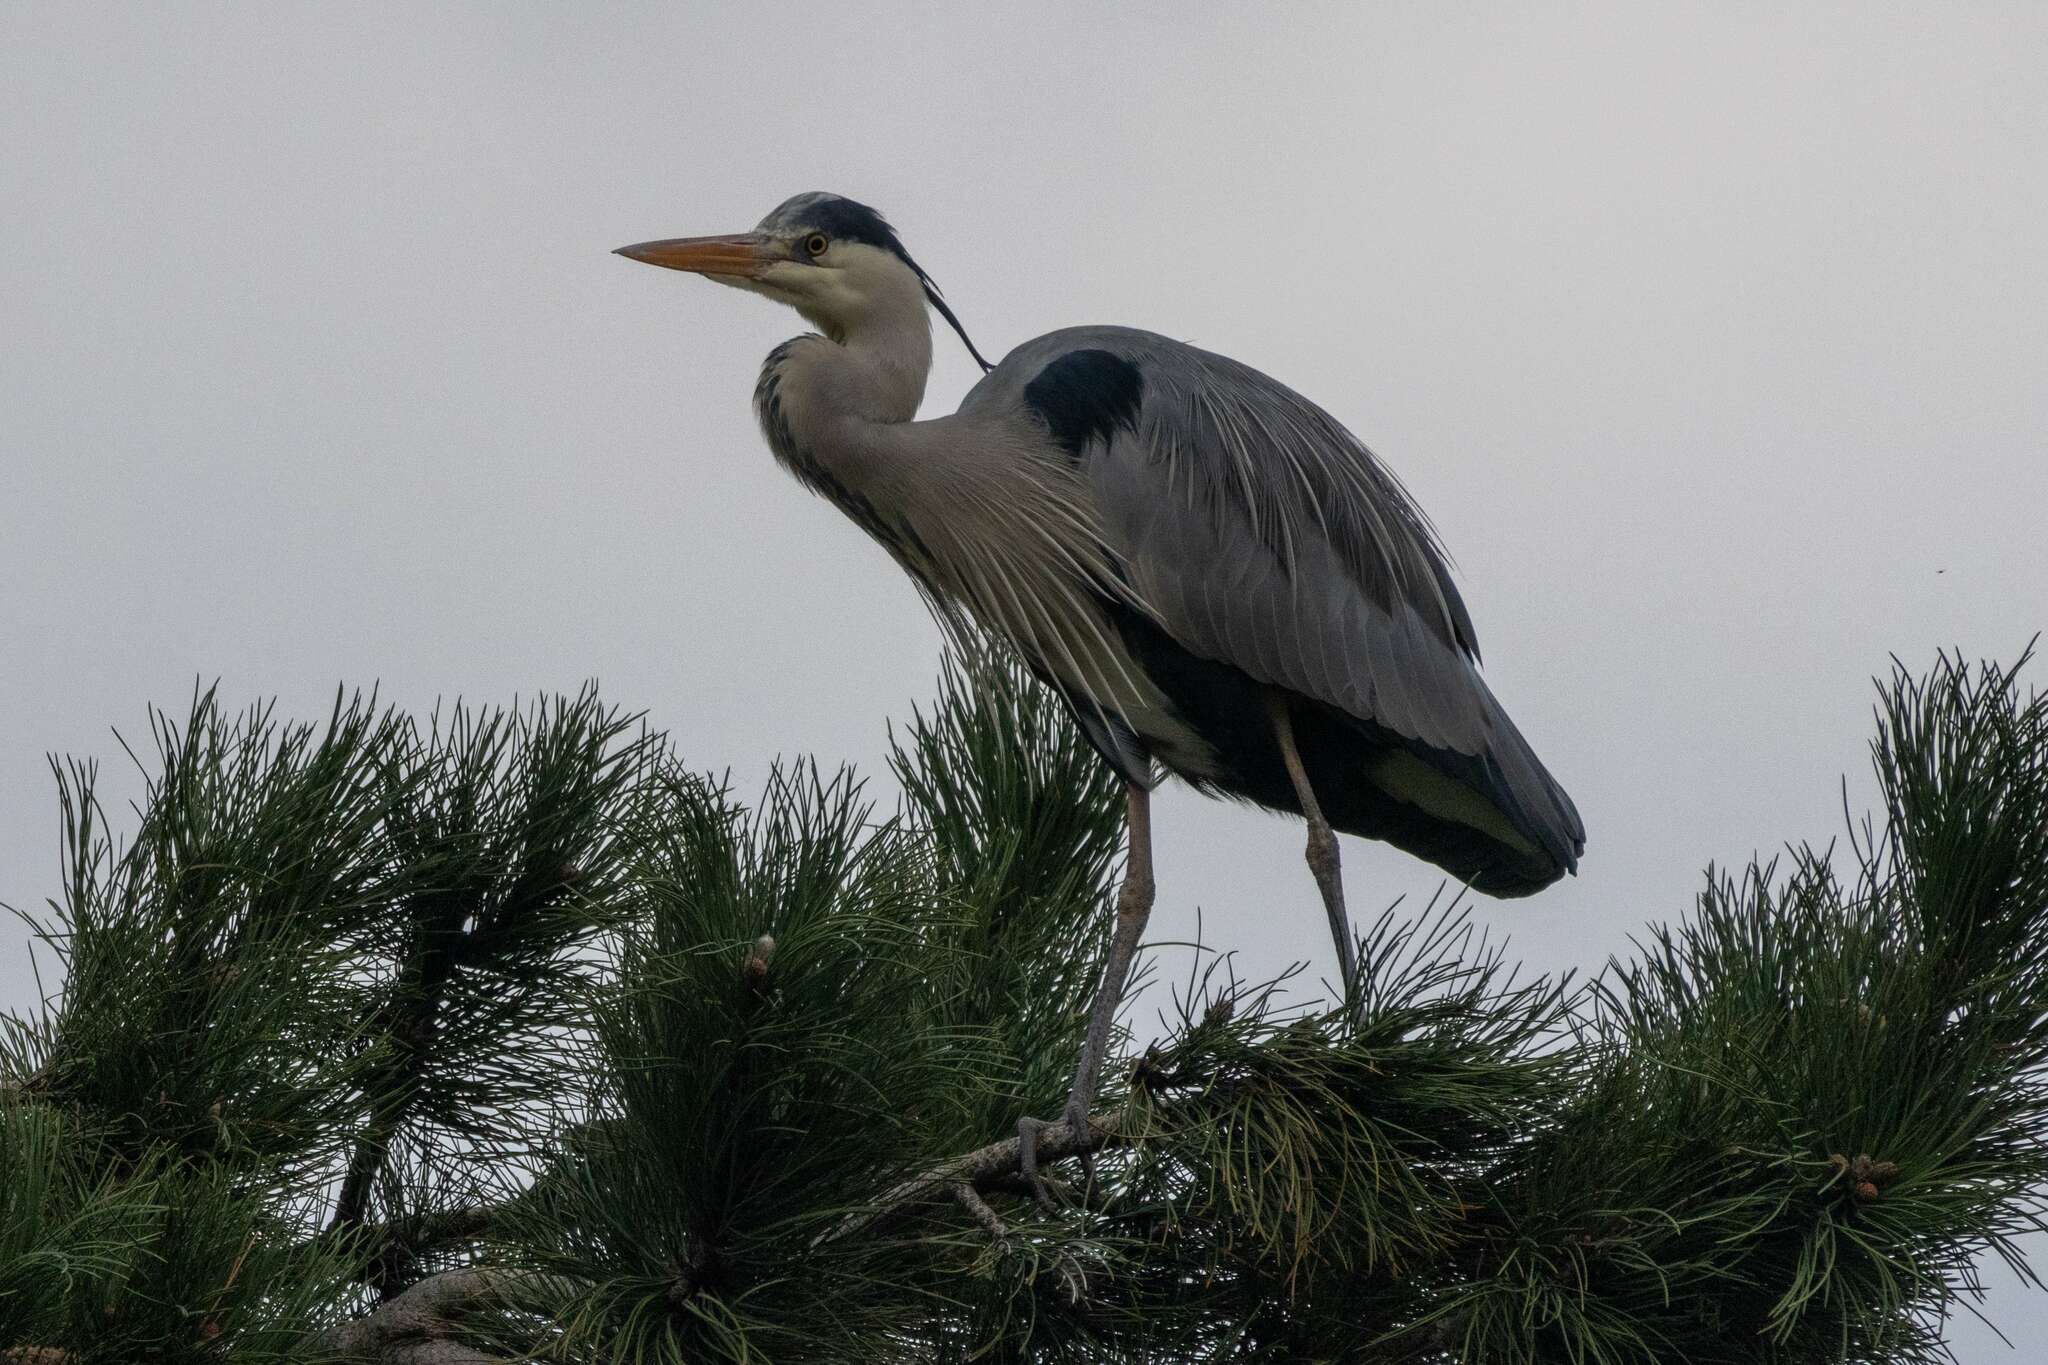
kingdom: Animalia
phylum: Chordata
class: Aves
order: Pelecaniformes
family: Ardeidae
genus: Ardea
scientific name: Ardea cinerea
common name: Grey heron
